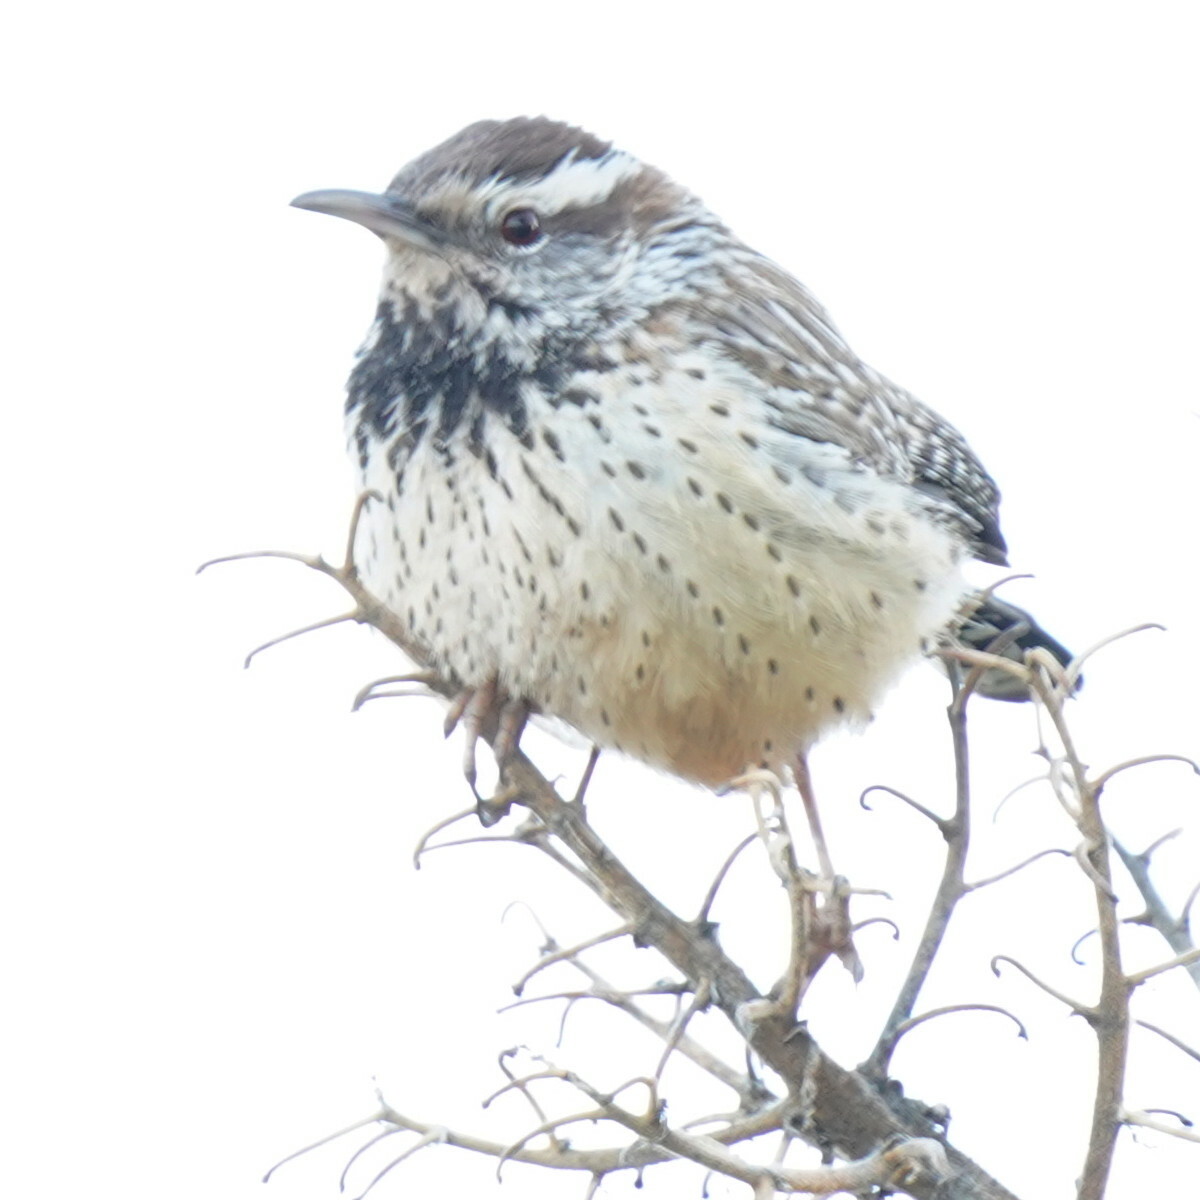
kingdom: Animalia
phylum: Chordata
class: Aves
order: Passeriformes
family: Troglodytidae
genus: Campylorhynchus
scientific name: Campylorhynchus brunneicapillus
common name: Cactus wren
